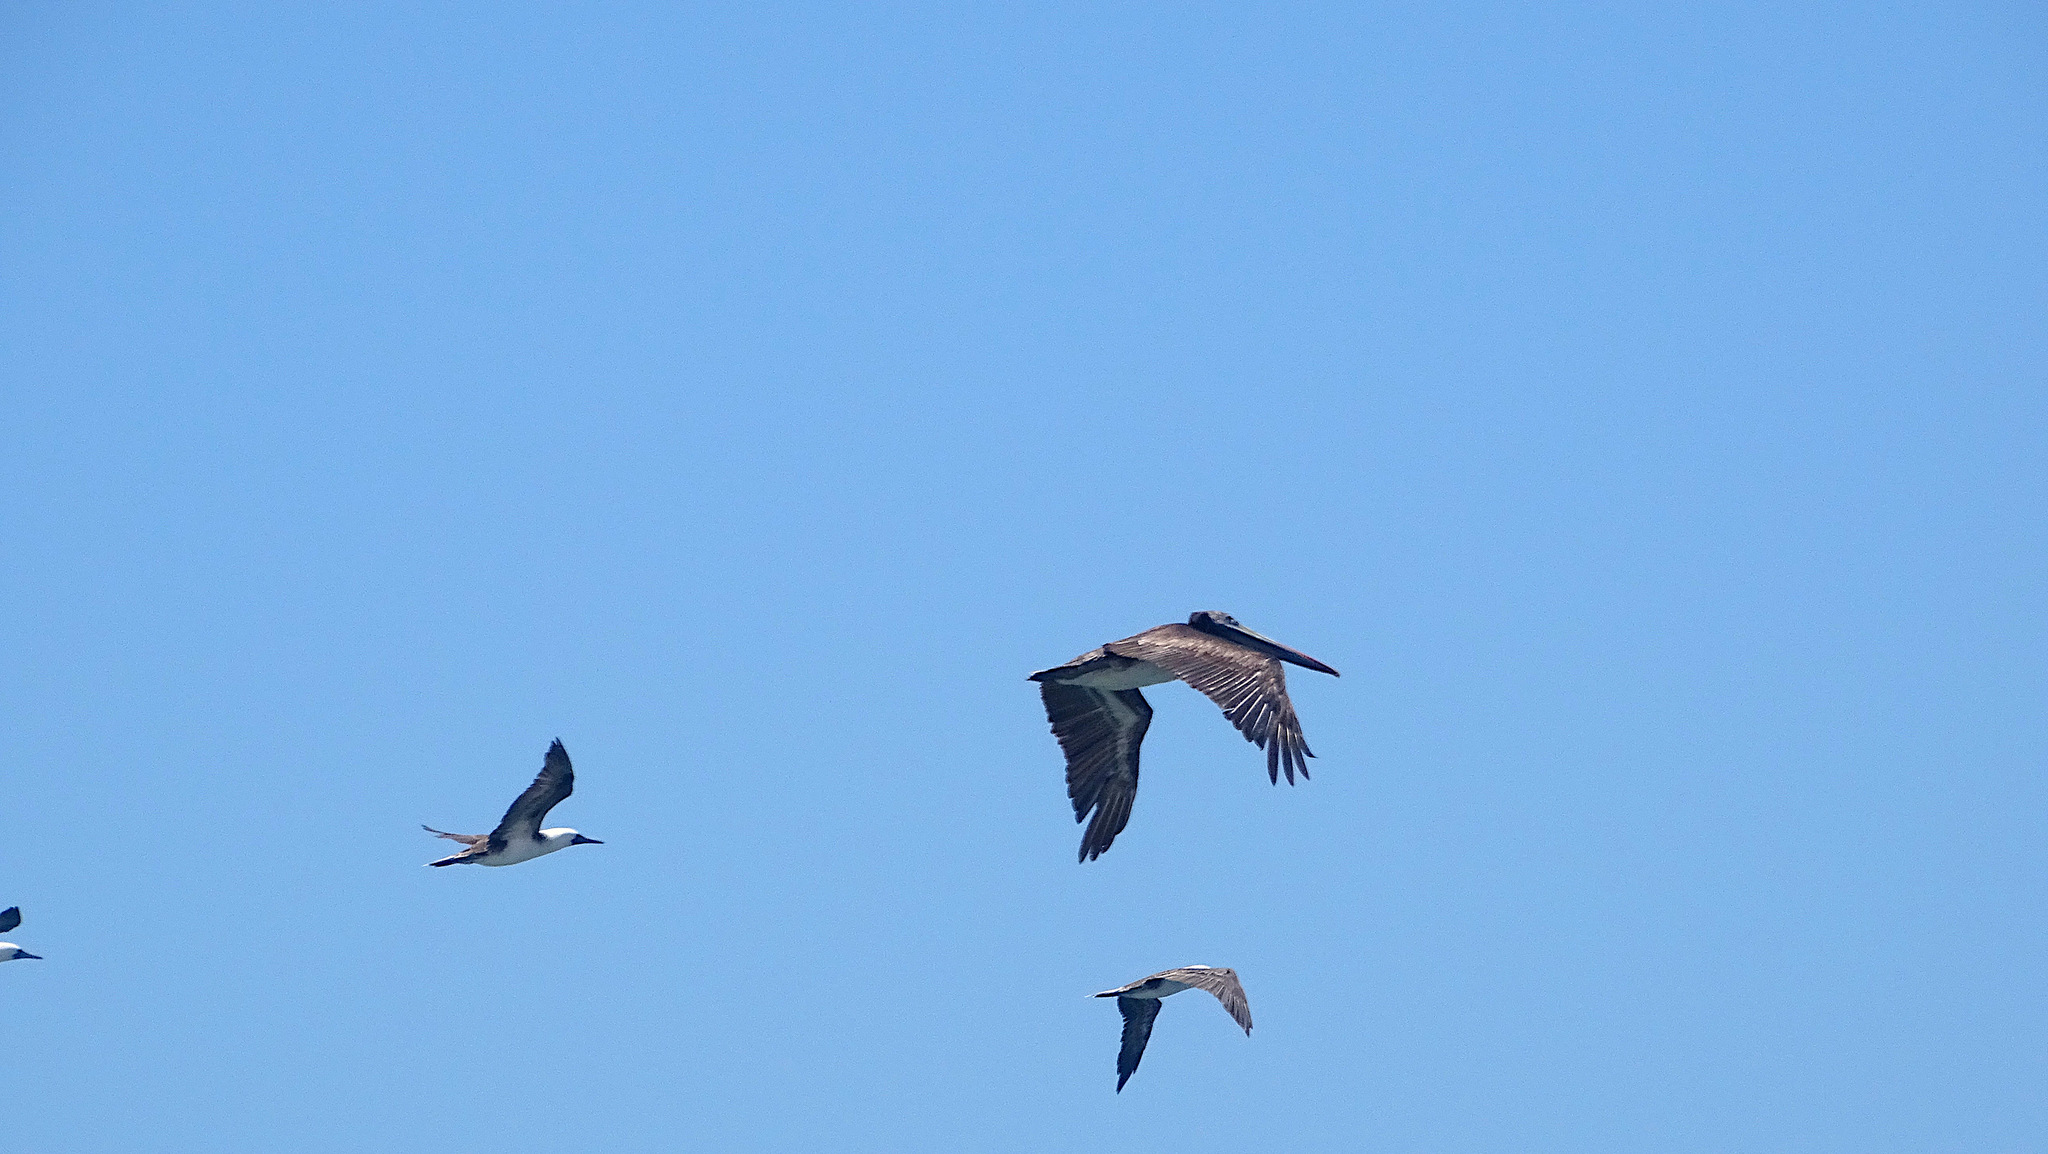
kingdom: Animalia
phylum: Chordata
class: Aves
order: Pelecaniformes
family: Pelecanidae
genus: Pelecanus
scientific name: Pelecanus thagus
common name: Peruvian pelican
